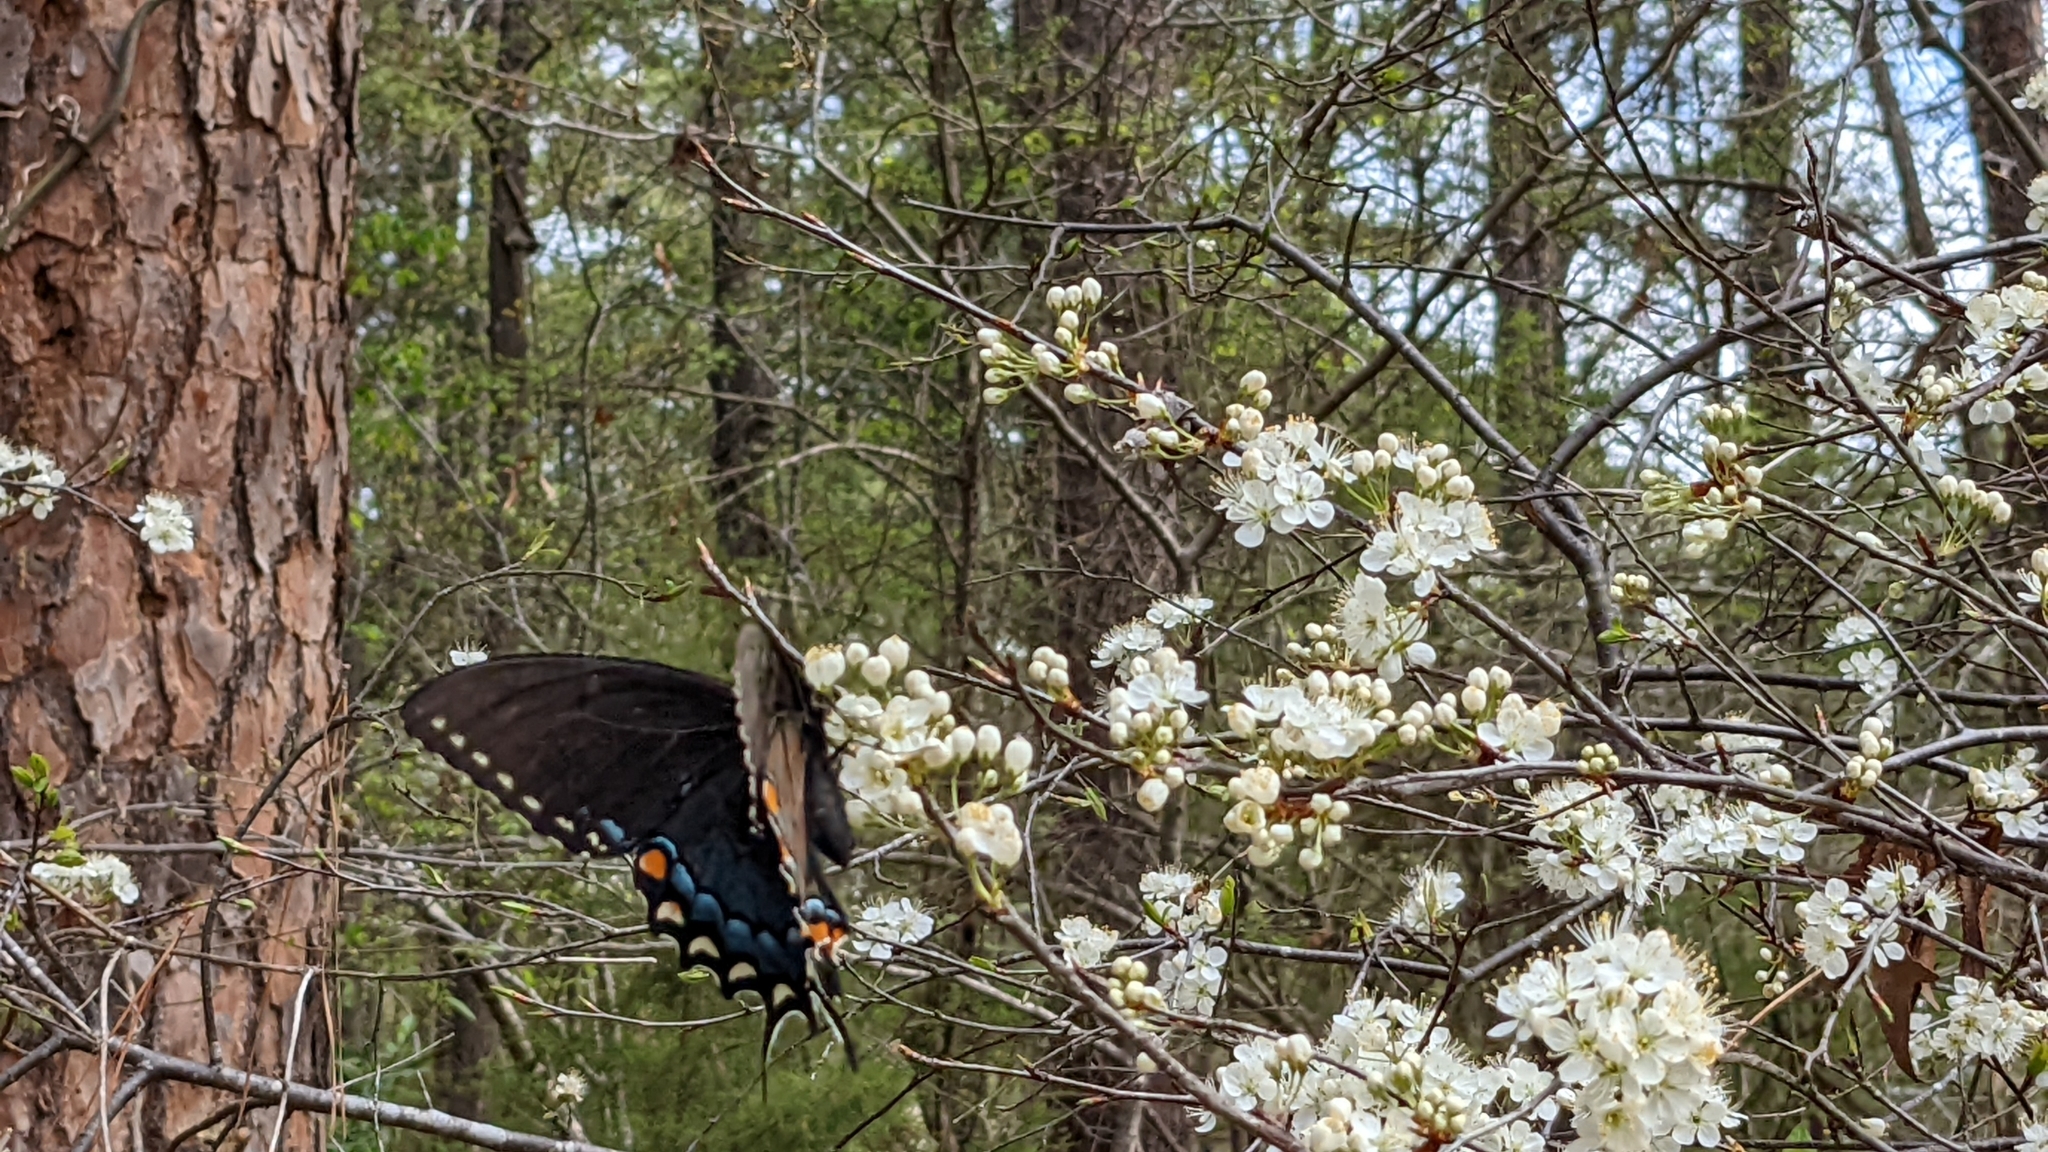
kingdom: Animalia
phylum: Arthropoda
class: Insecta
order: Lepidoptera
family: Papilionidae
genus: Papilio
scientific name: Papilio glaucus
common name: Tiger swallowtail
